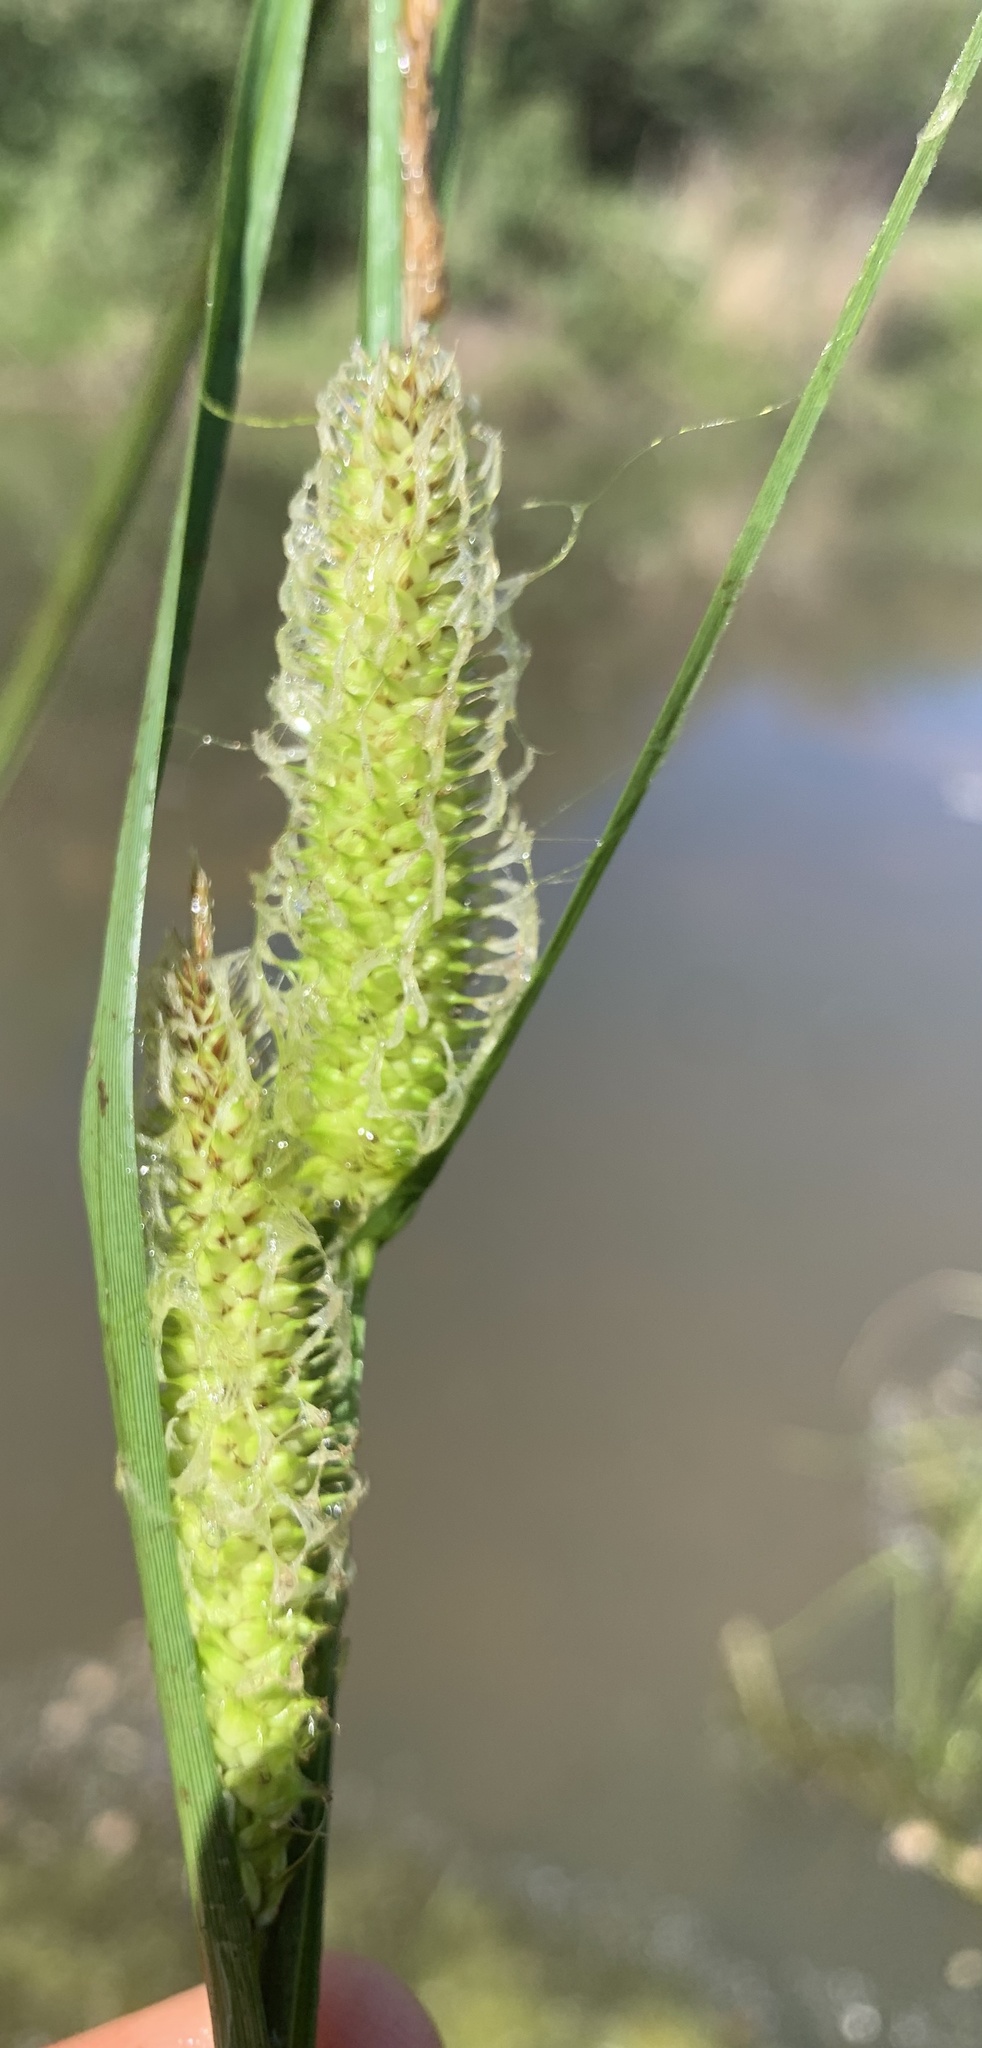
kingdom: Plantae
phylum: Tracheophyta
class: Liliopsida
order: Poales
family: Cyperaceae
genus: Carex
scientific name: Carex utriculata
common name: Beaked sedge
